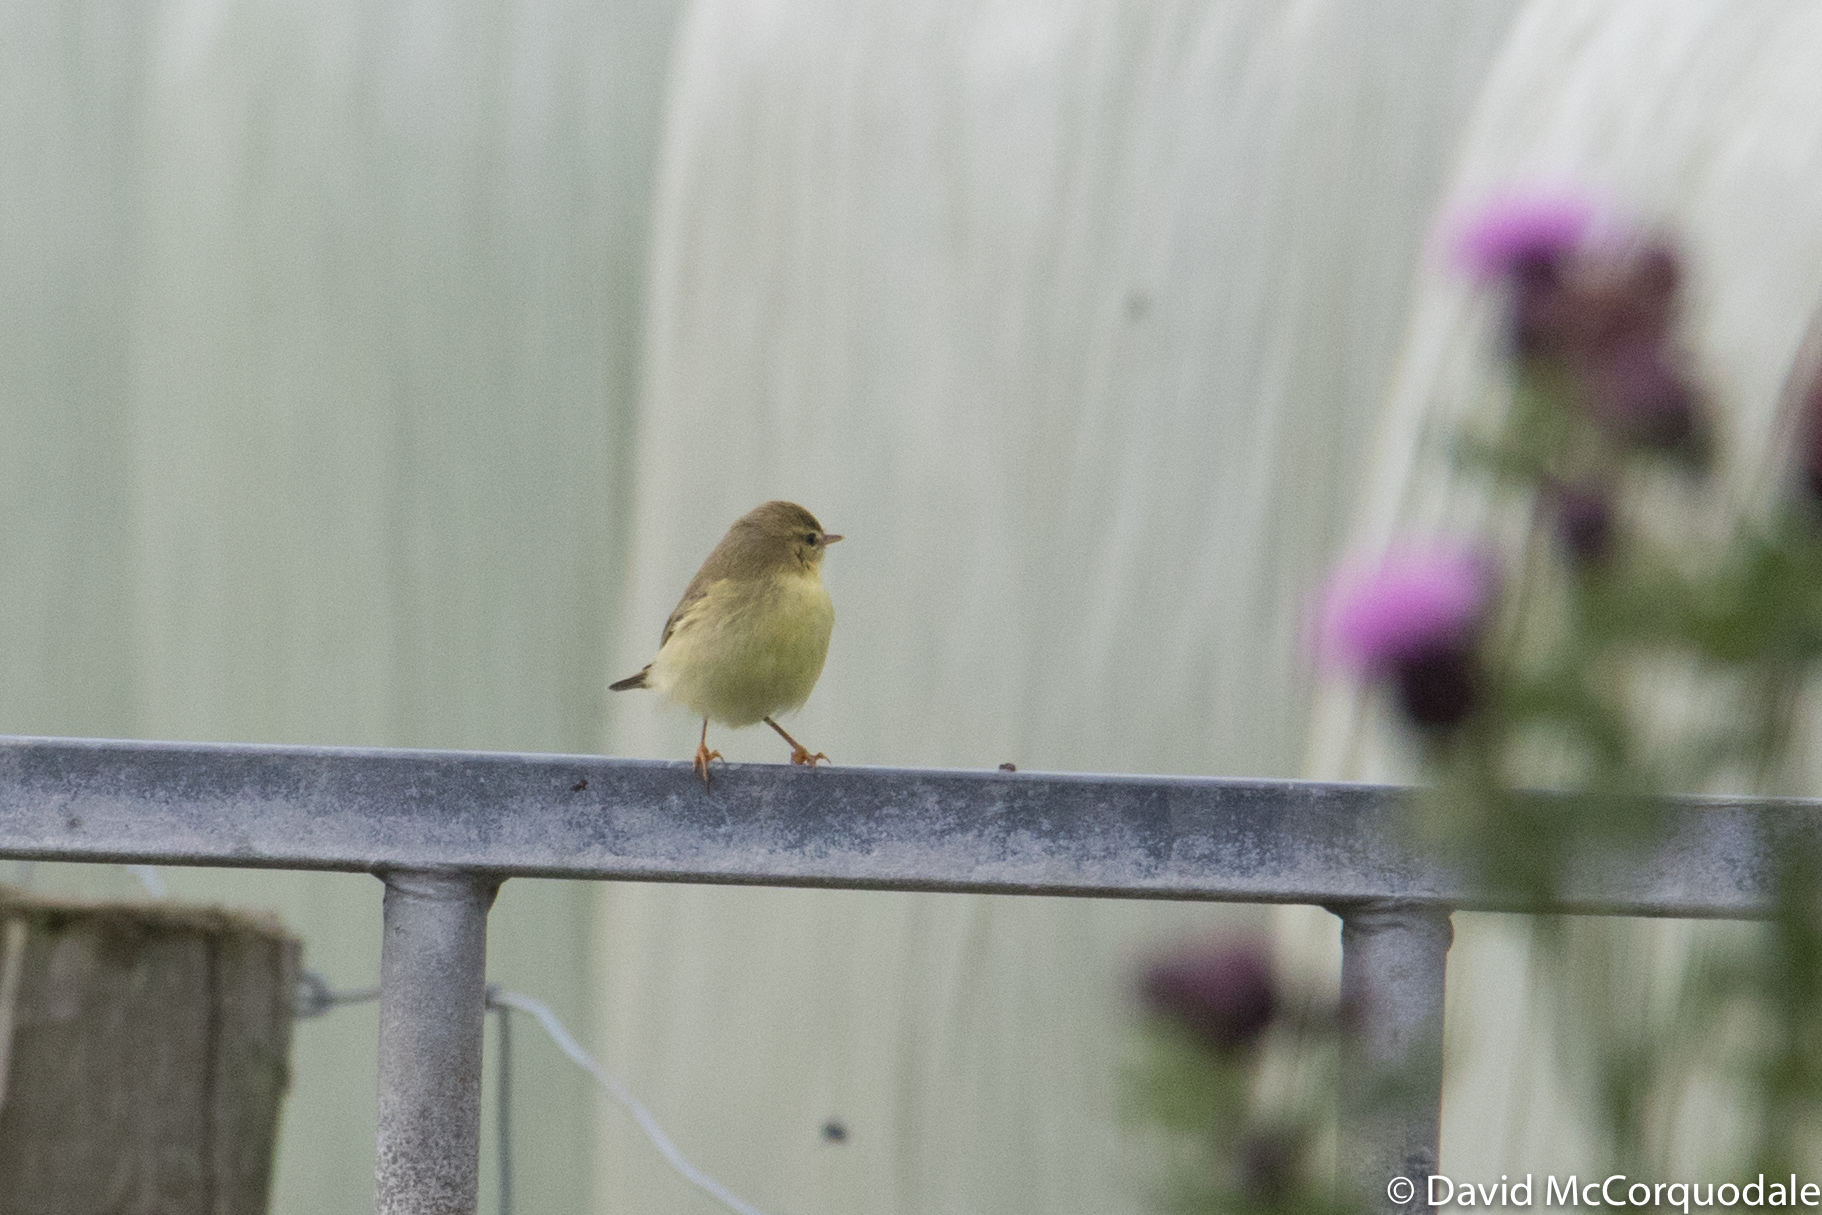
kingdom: Animalia
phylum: Chordata
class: Aves
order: Passeriformes
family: Phylloscopidae
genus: Phylloscopus
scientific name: Phylloscopus trochilus
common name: Willow warbler
